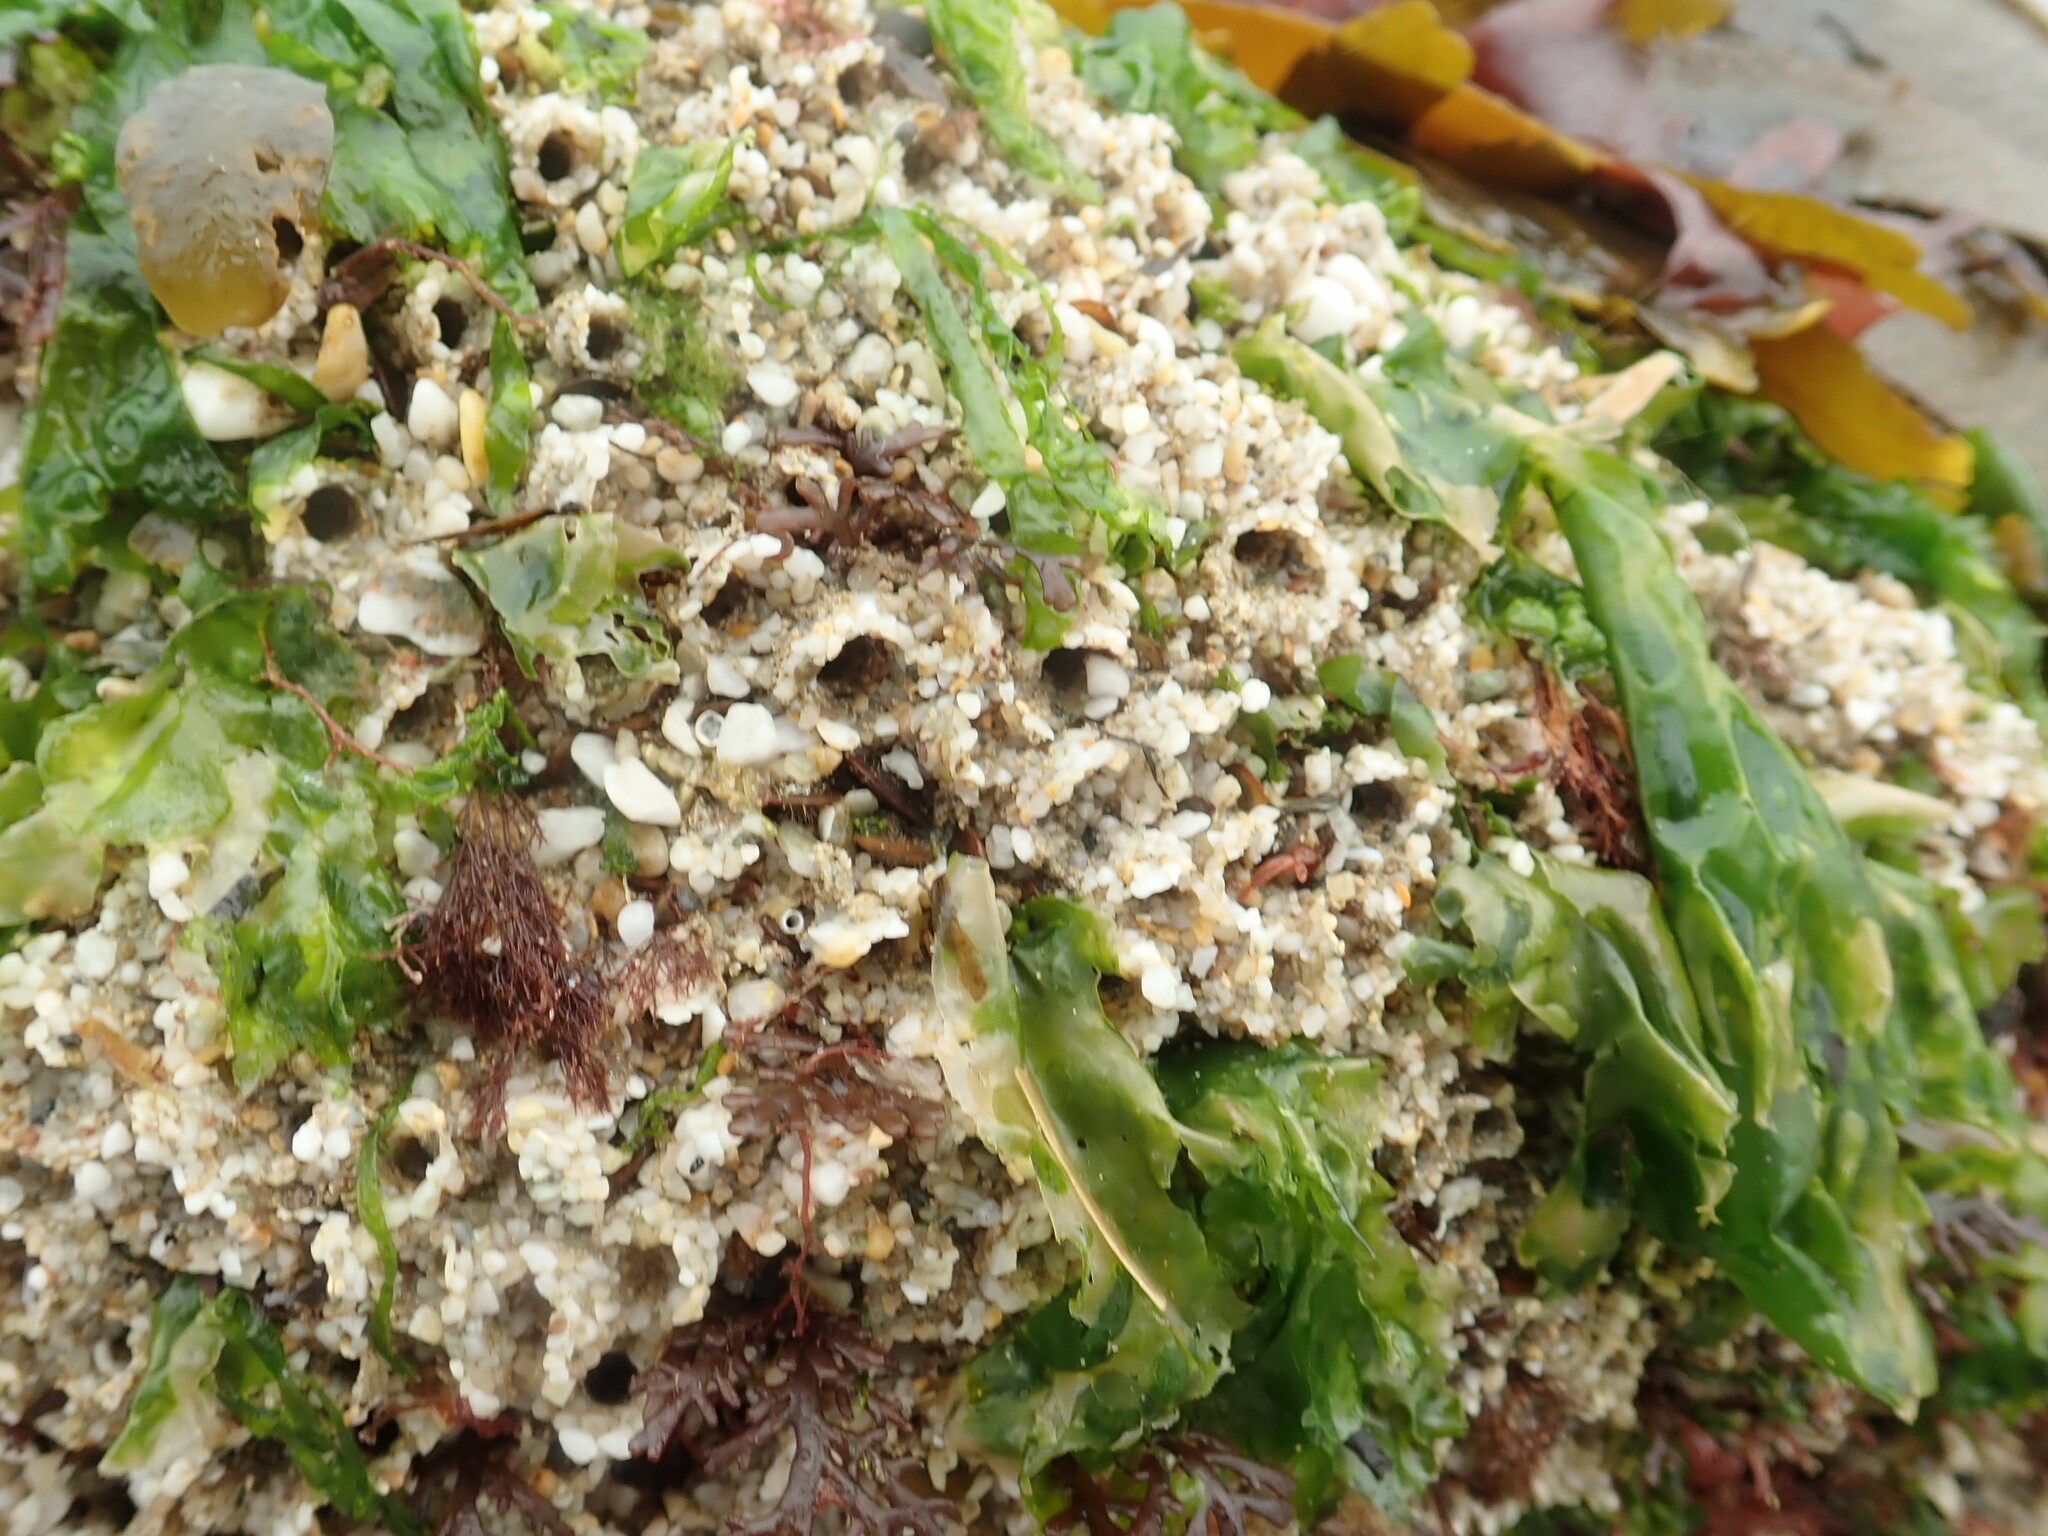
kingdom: Animalia
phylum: Annelida
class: Polychaeta
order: Sabellida
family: Sabellariidae
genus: Sabellaria
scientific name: Sabellaria alveolata
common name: Honeycomb worm
